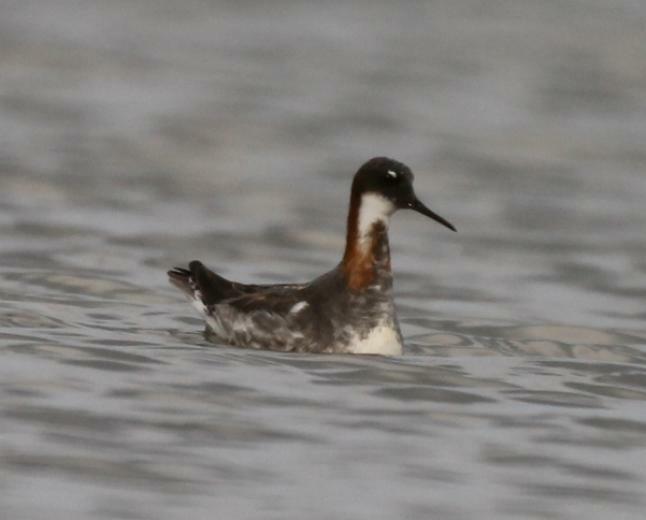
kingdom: Animalia
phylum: Chordata
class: Aves
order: Charadriiformes
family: Scolopacidae
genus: Phalaropus
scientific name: Phalaropus lobatus
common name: Red-necked phalarope
